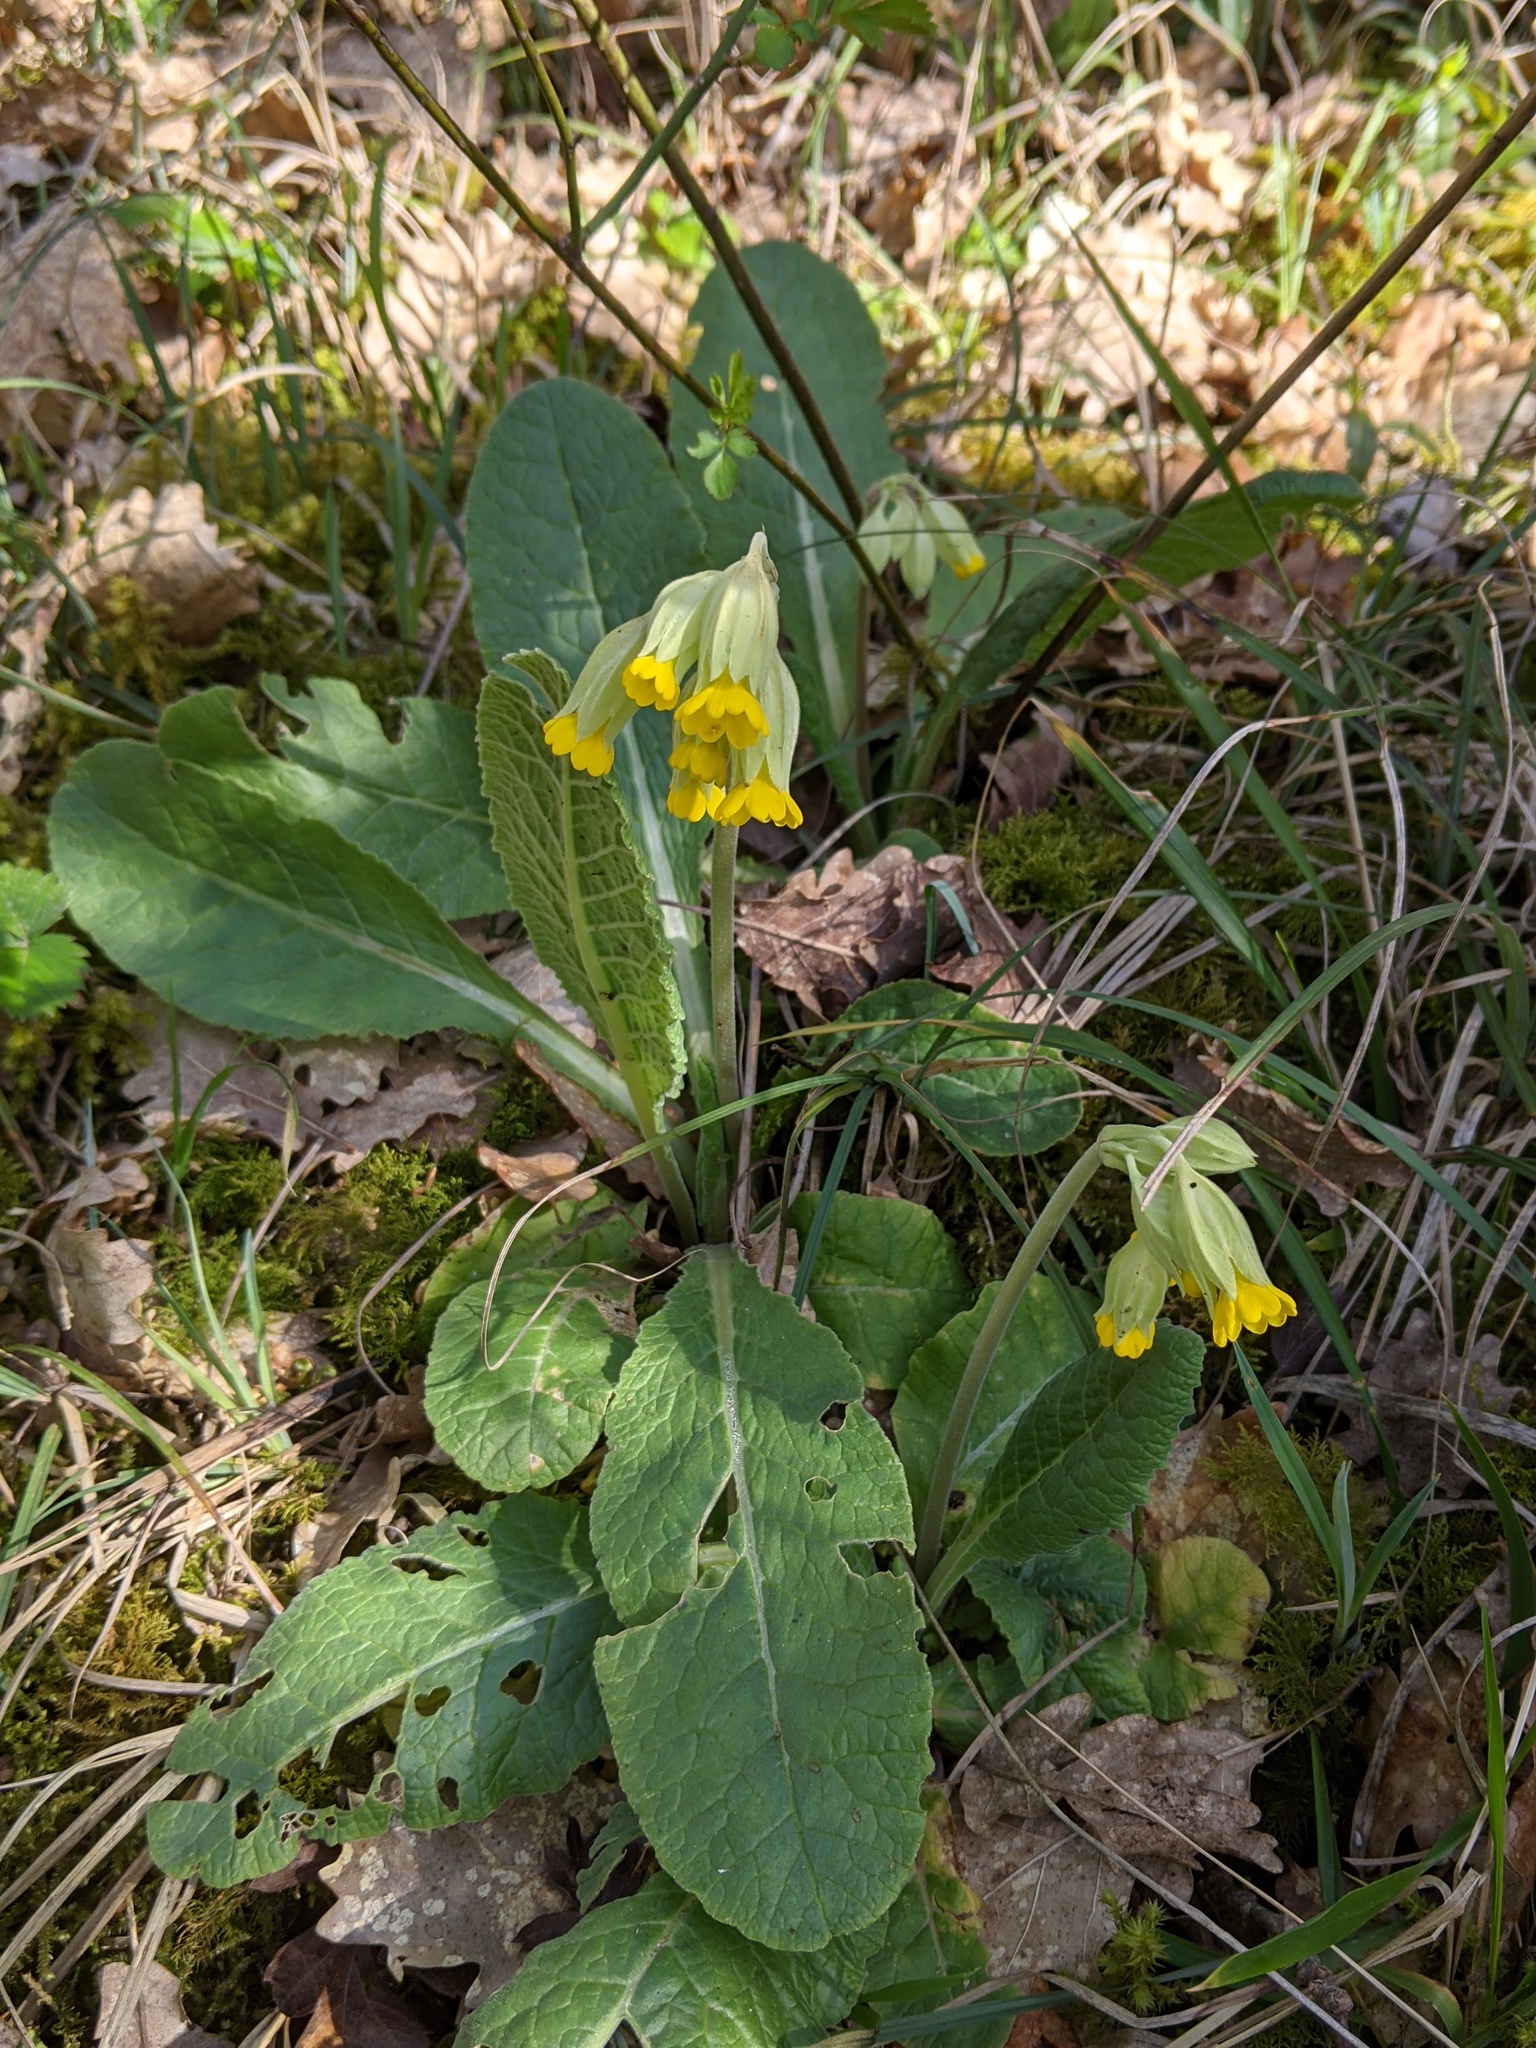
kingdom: Plantae
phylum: Tracheophyta
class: Magnoliopsida
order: Ericales
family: Primulaceae
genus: Primula
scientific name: Primula veris
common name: Cowslip
